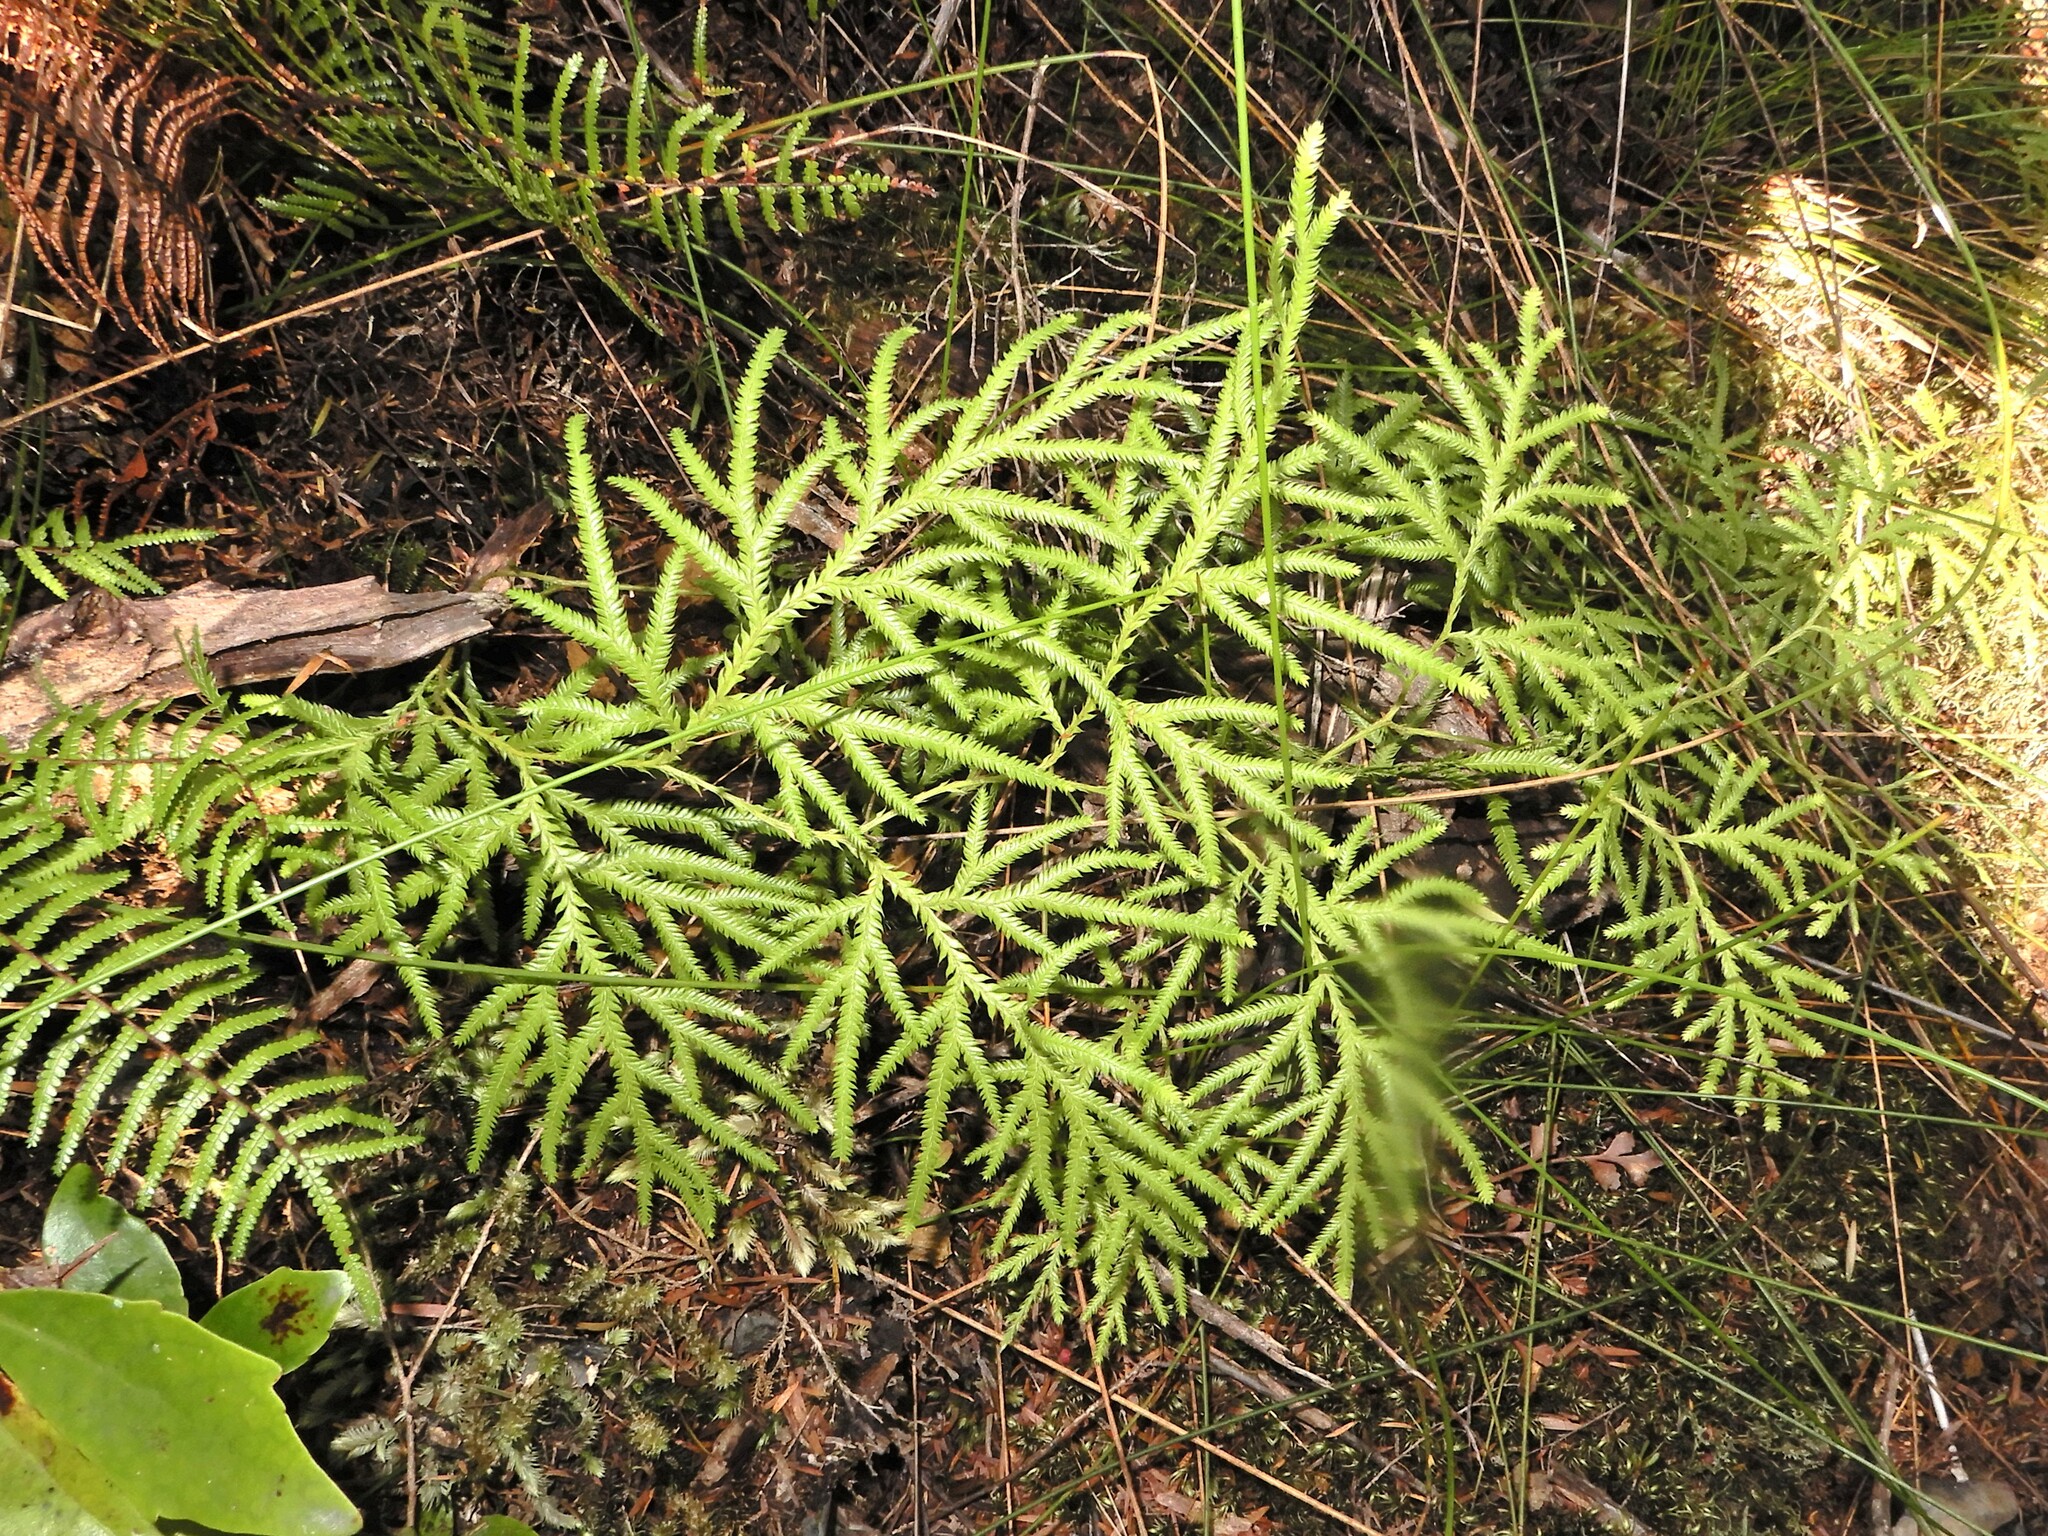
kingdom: Plantae
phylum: Tracheophyta
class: Lycopodiopsida
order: Lycopodiales
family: Lycopodiaceae
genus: Lycopodium
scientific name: Lycopodium volubile
